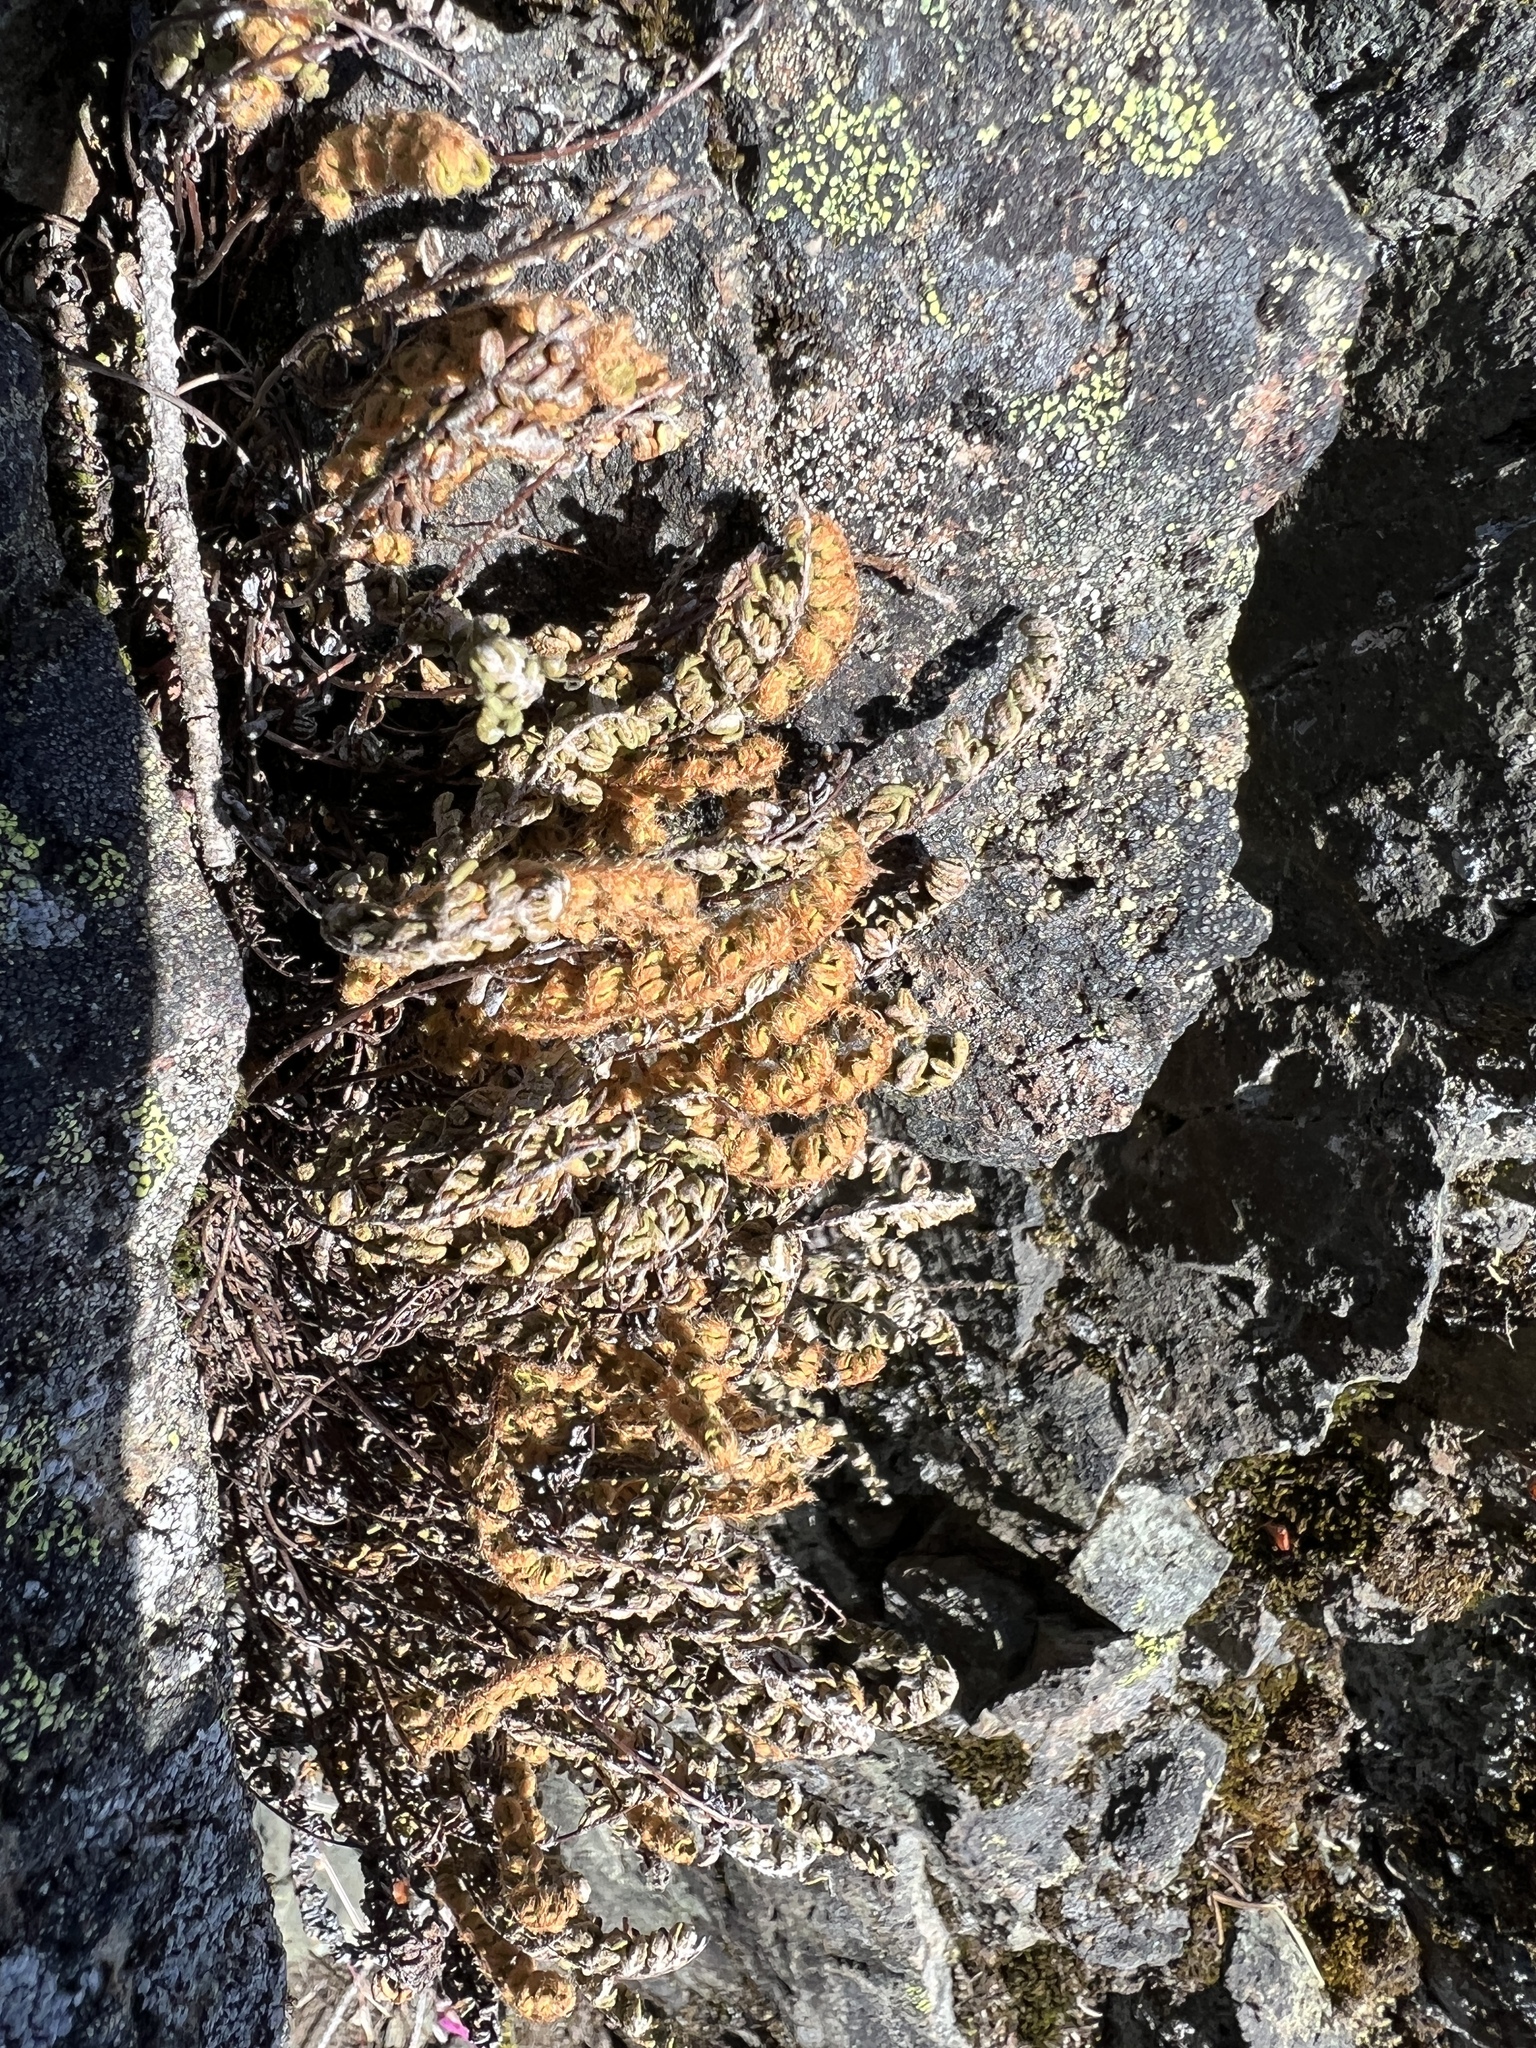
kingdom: Plantae
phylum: Tracheophyta
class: Polypodiopsida
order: Polypodiales
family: Pteridaceae
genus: Myriopteris
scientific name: Myriopteris gracillima
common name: Lace fern
